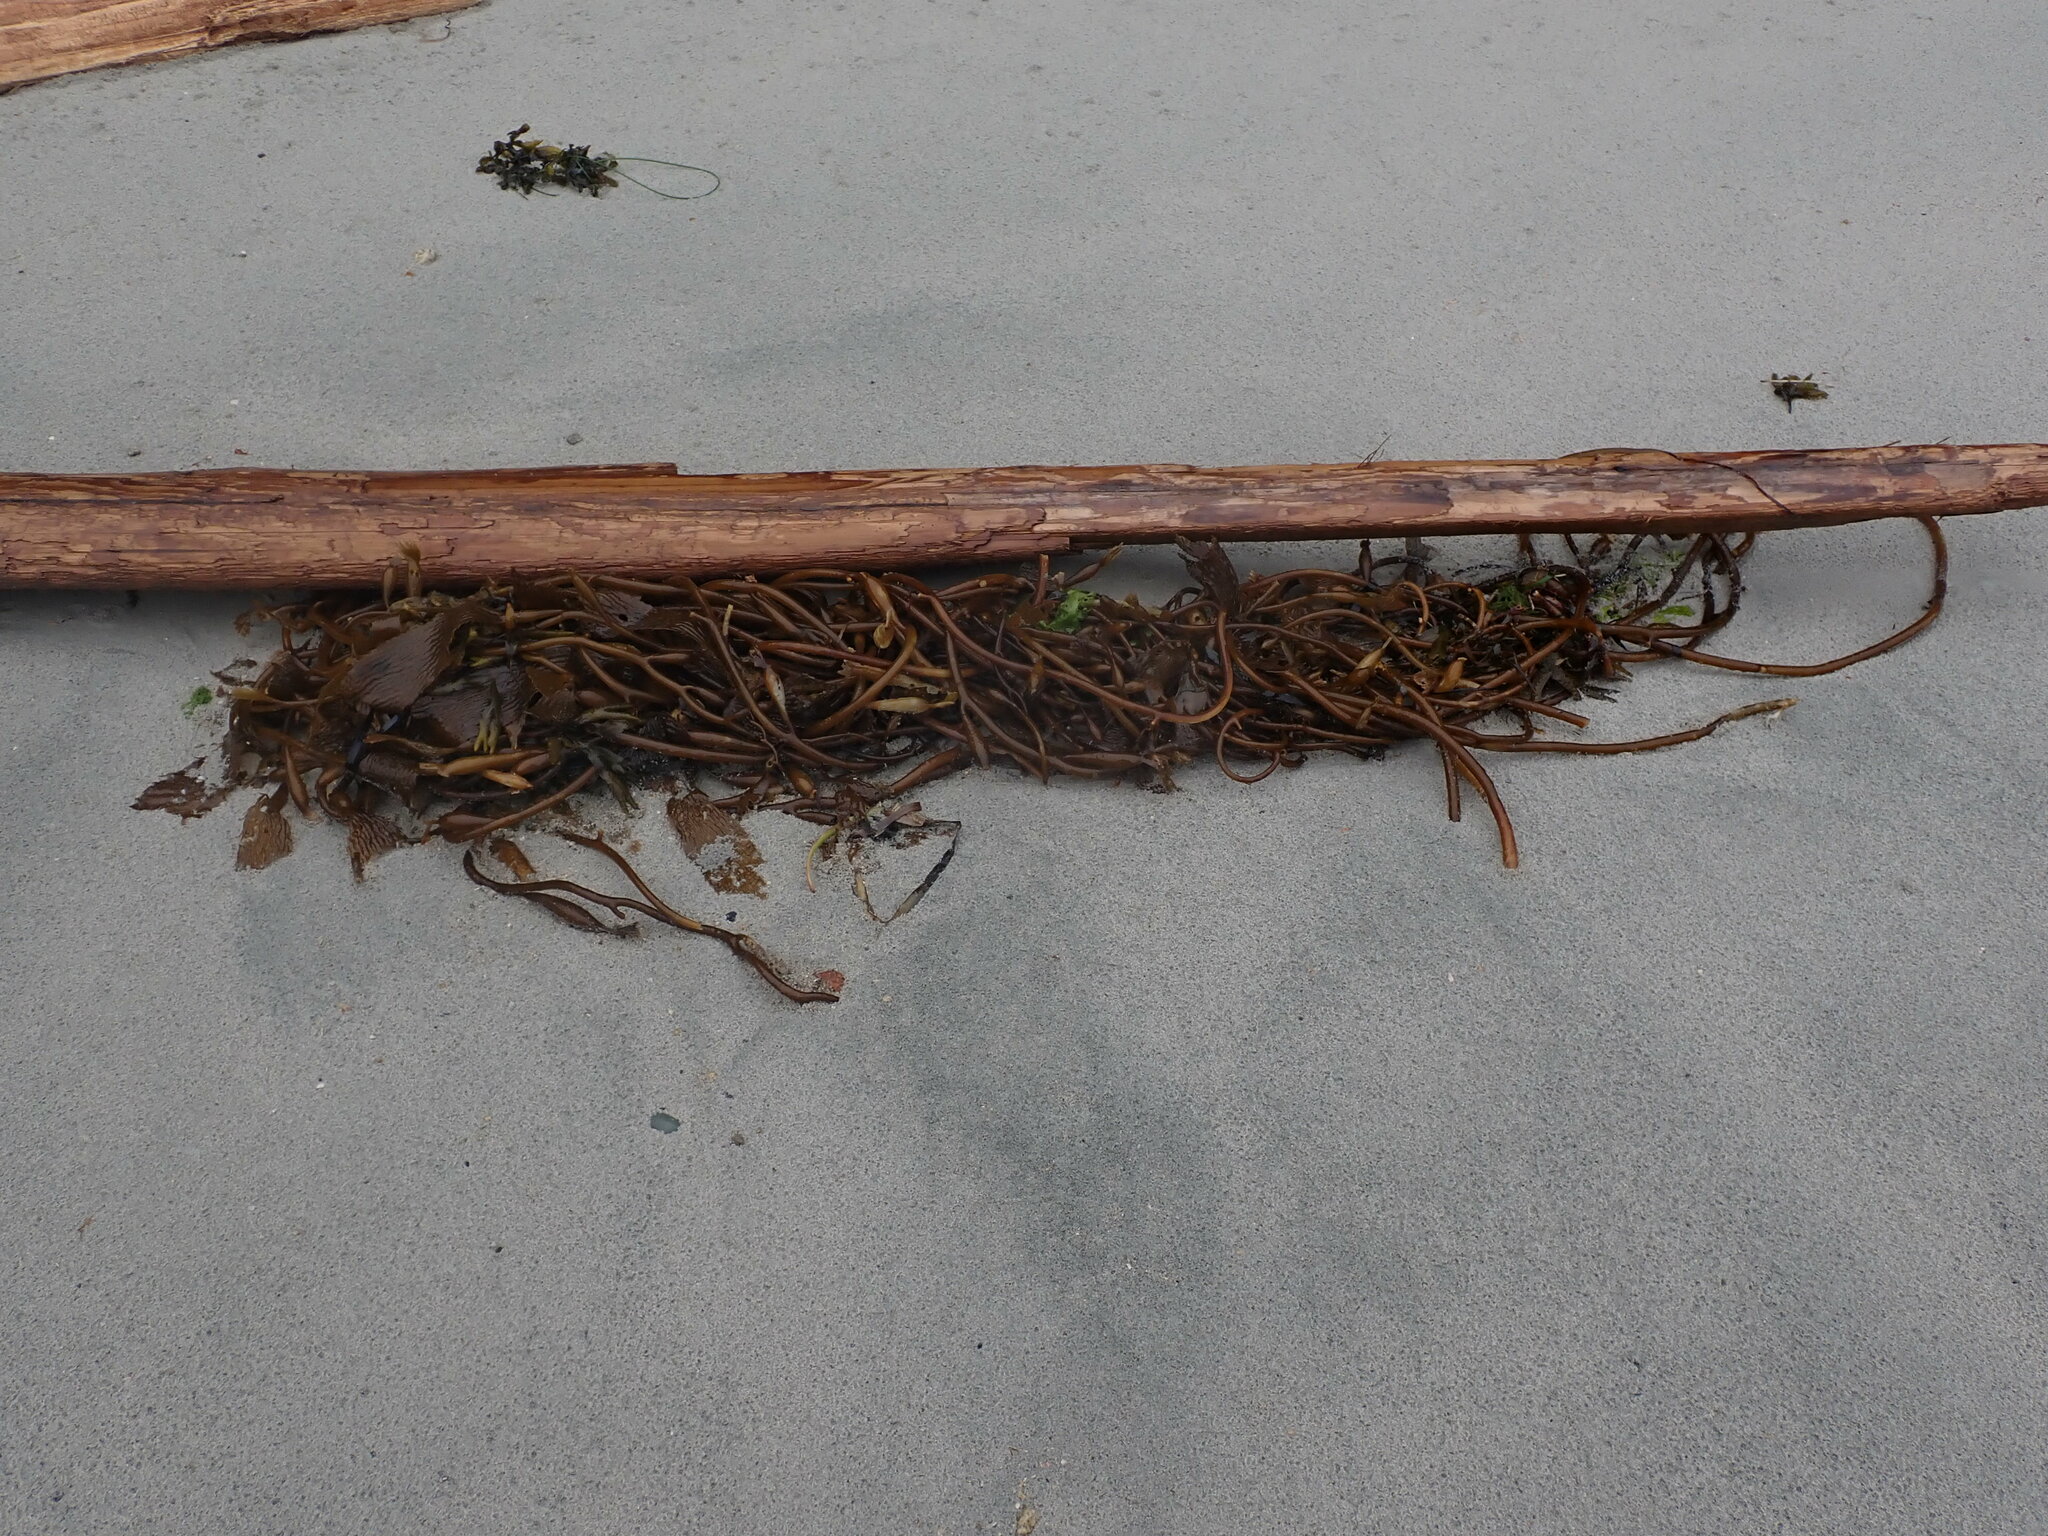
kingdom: Chromista
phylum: Ochrophyta
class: Phaeophyceae
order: Laminariales
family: Laminariaceae
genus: Macrocystis
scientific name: Macrocystis pyrifera
